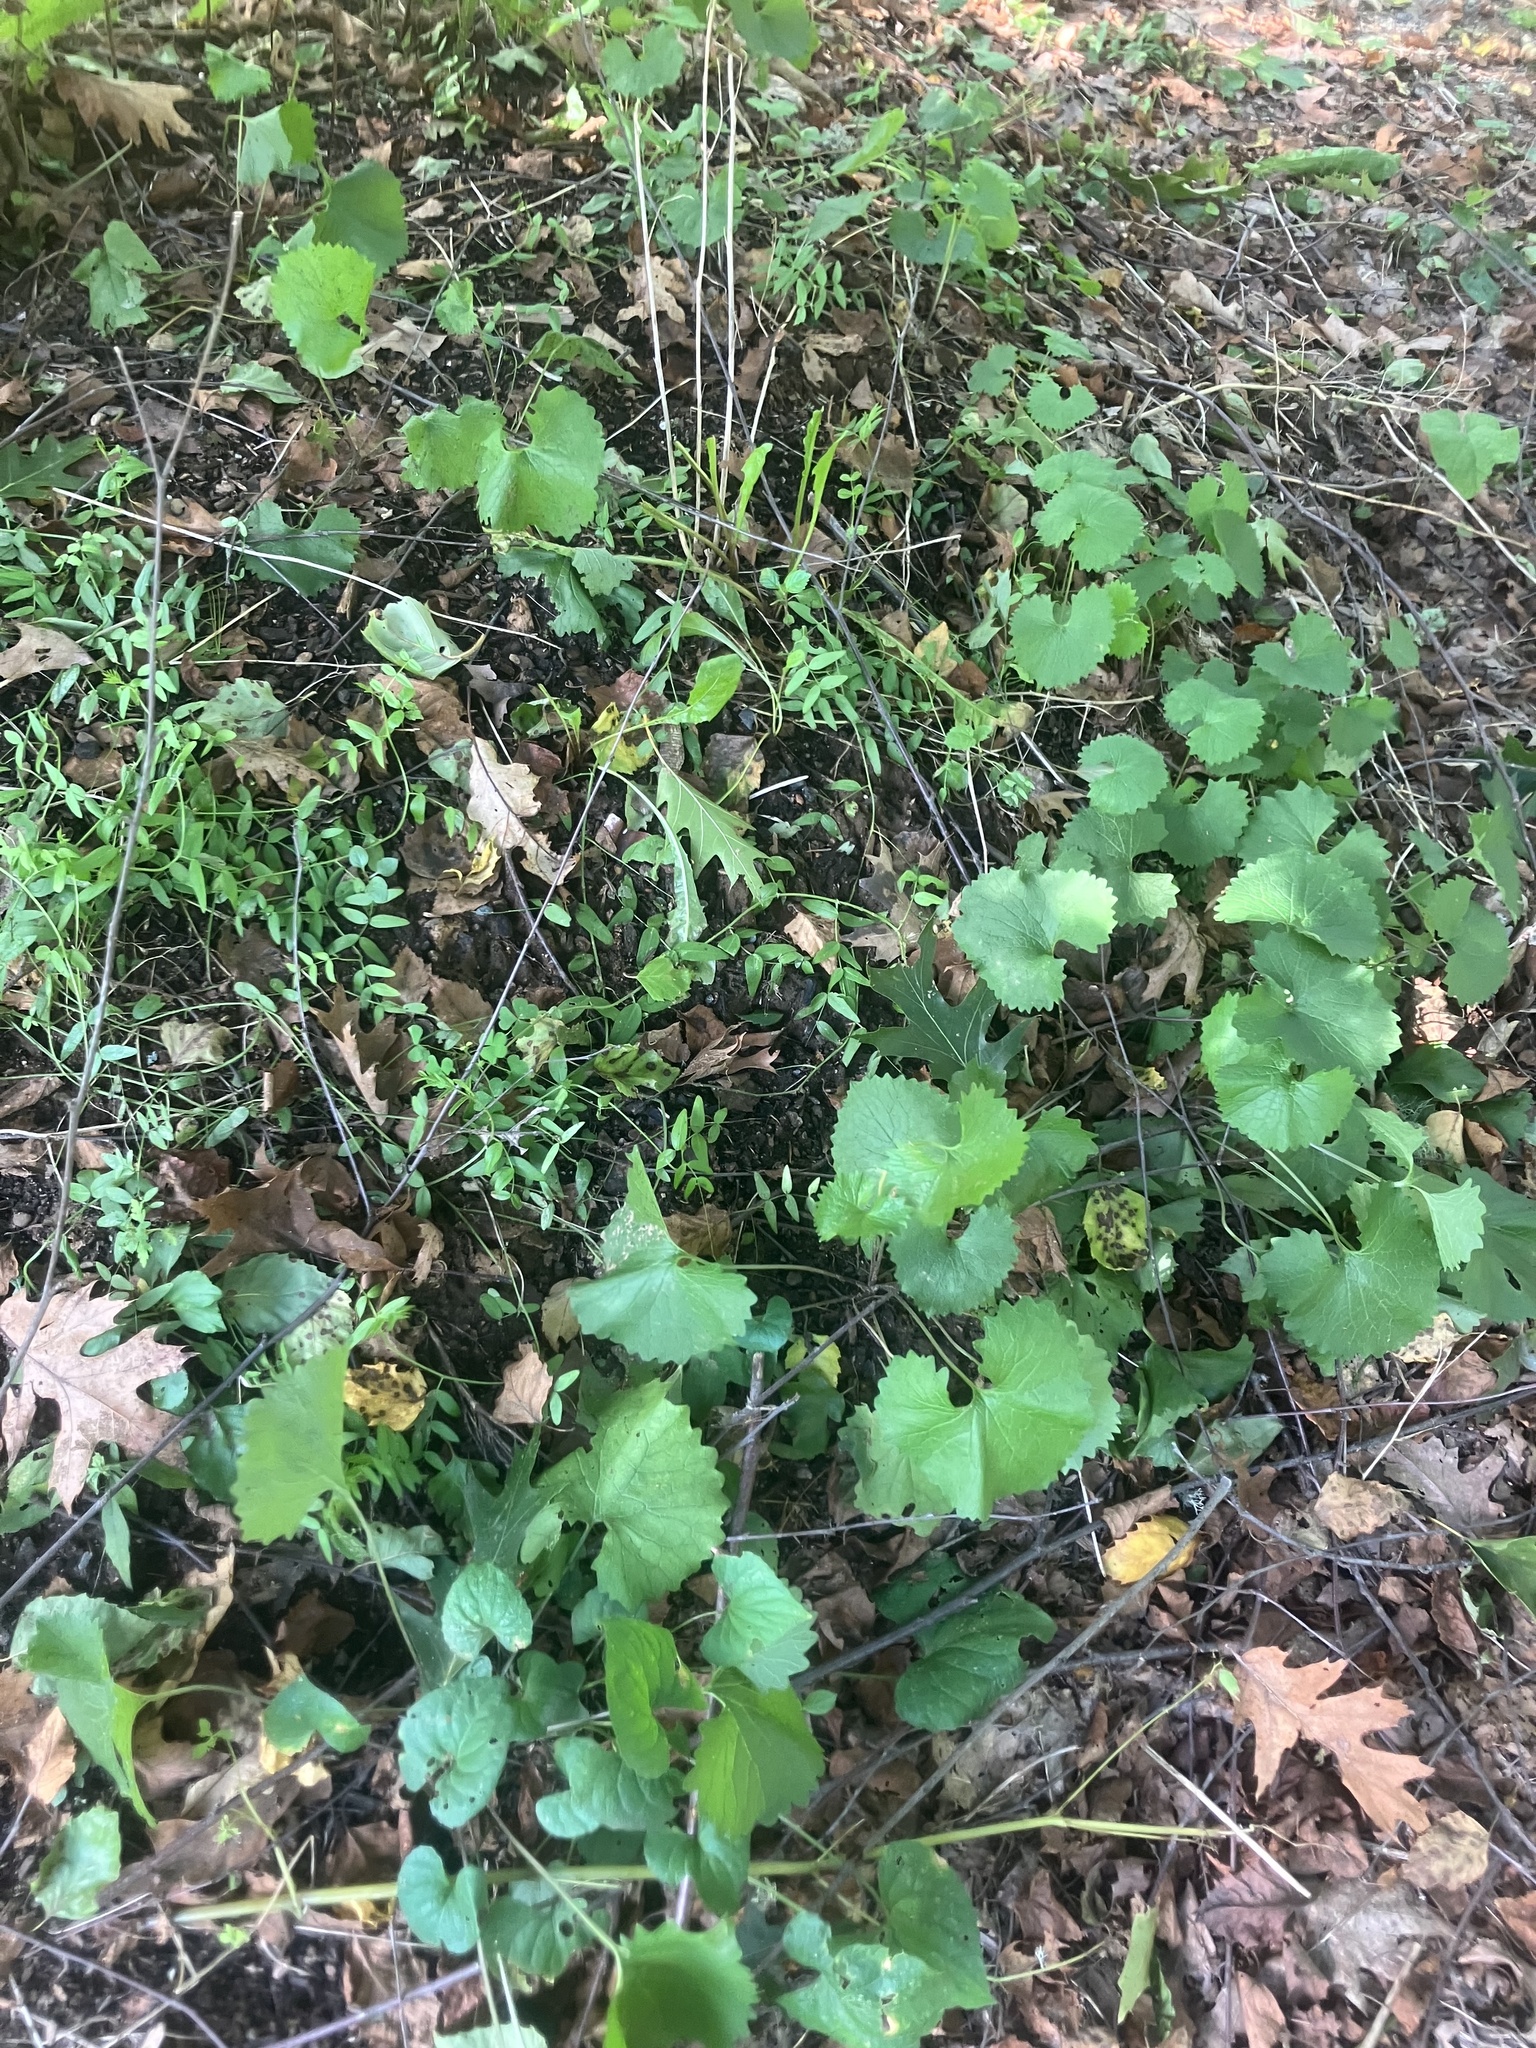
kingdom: Plantae
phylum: Tracheophyta
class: Magnoliopsida
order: Brassicales
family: Brassicaceae
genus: Alliaria
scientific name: Alliaria petiolata
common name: Garlic mustard
